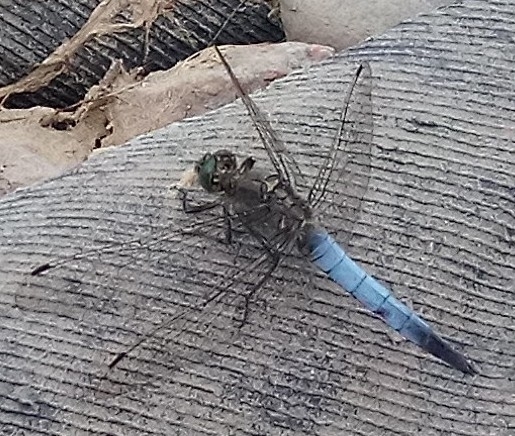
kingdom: Animalia
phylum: Arthropoda
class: Insecta
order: Odonata
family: Libellulidae
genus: Orthetrum
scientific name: Orthetrum cancellatum
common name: Black-tailed skimmer
